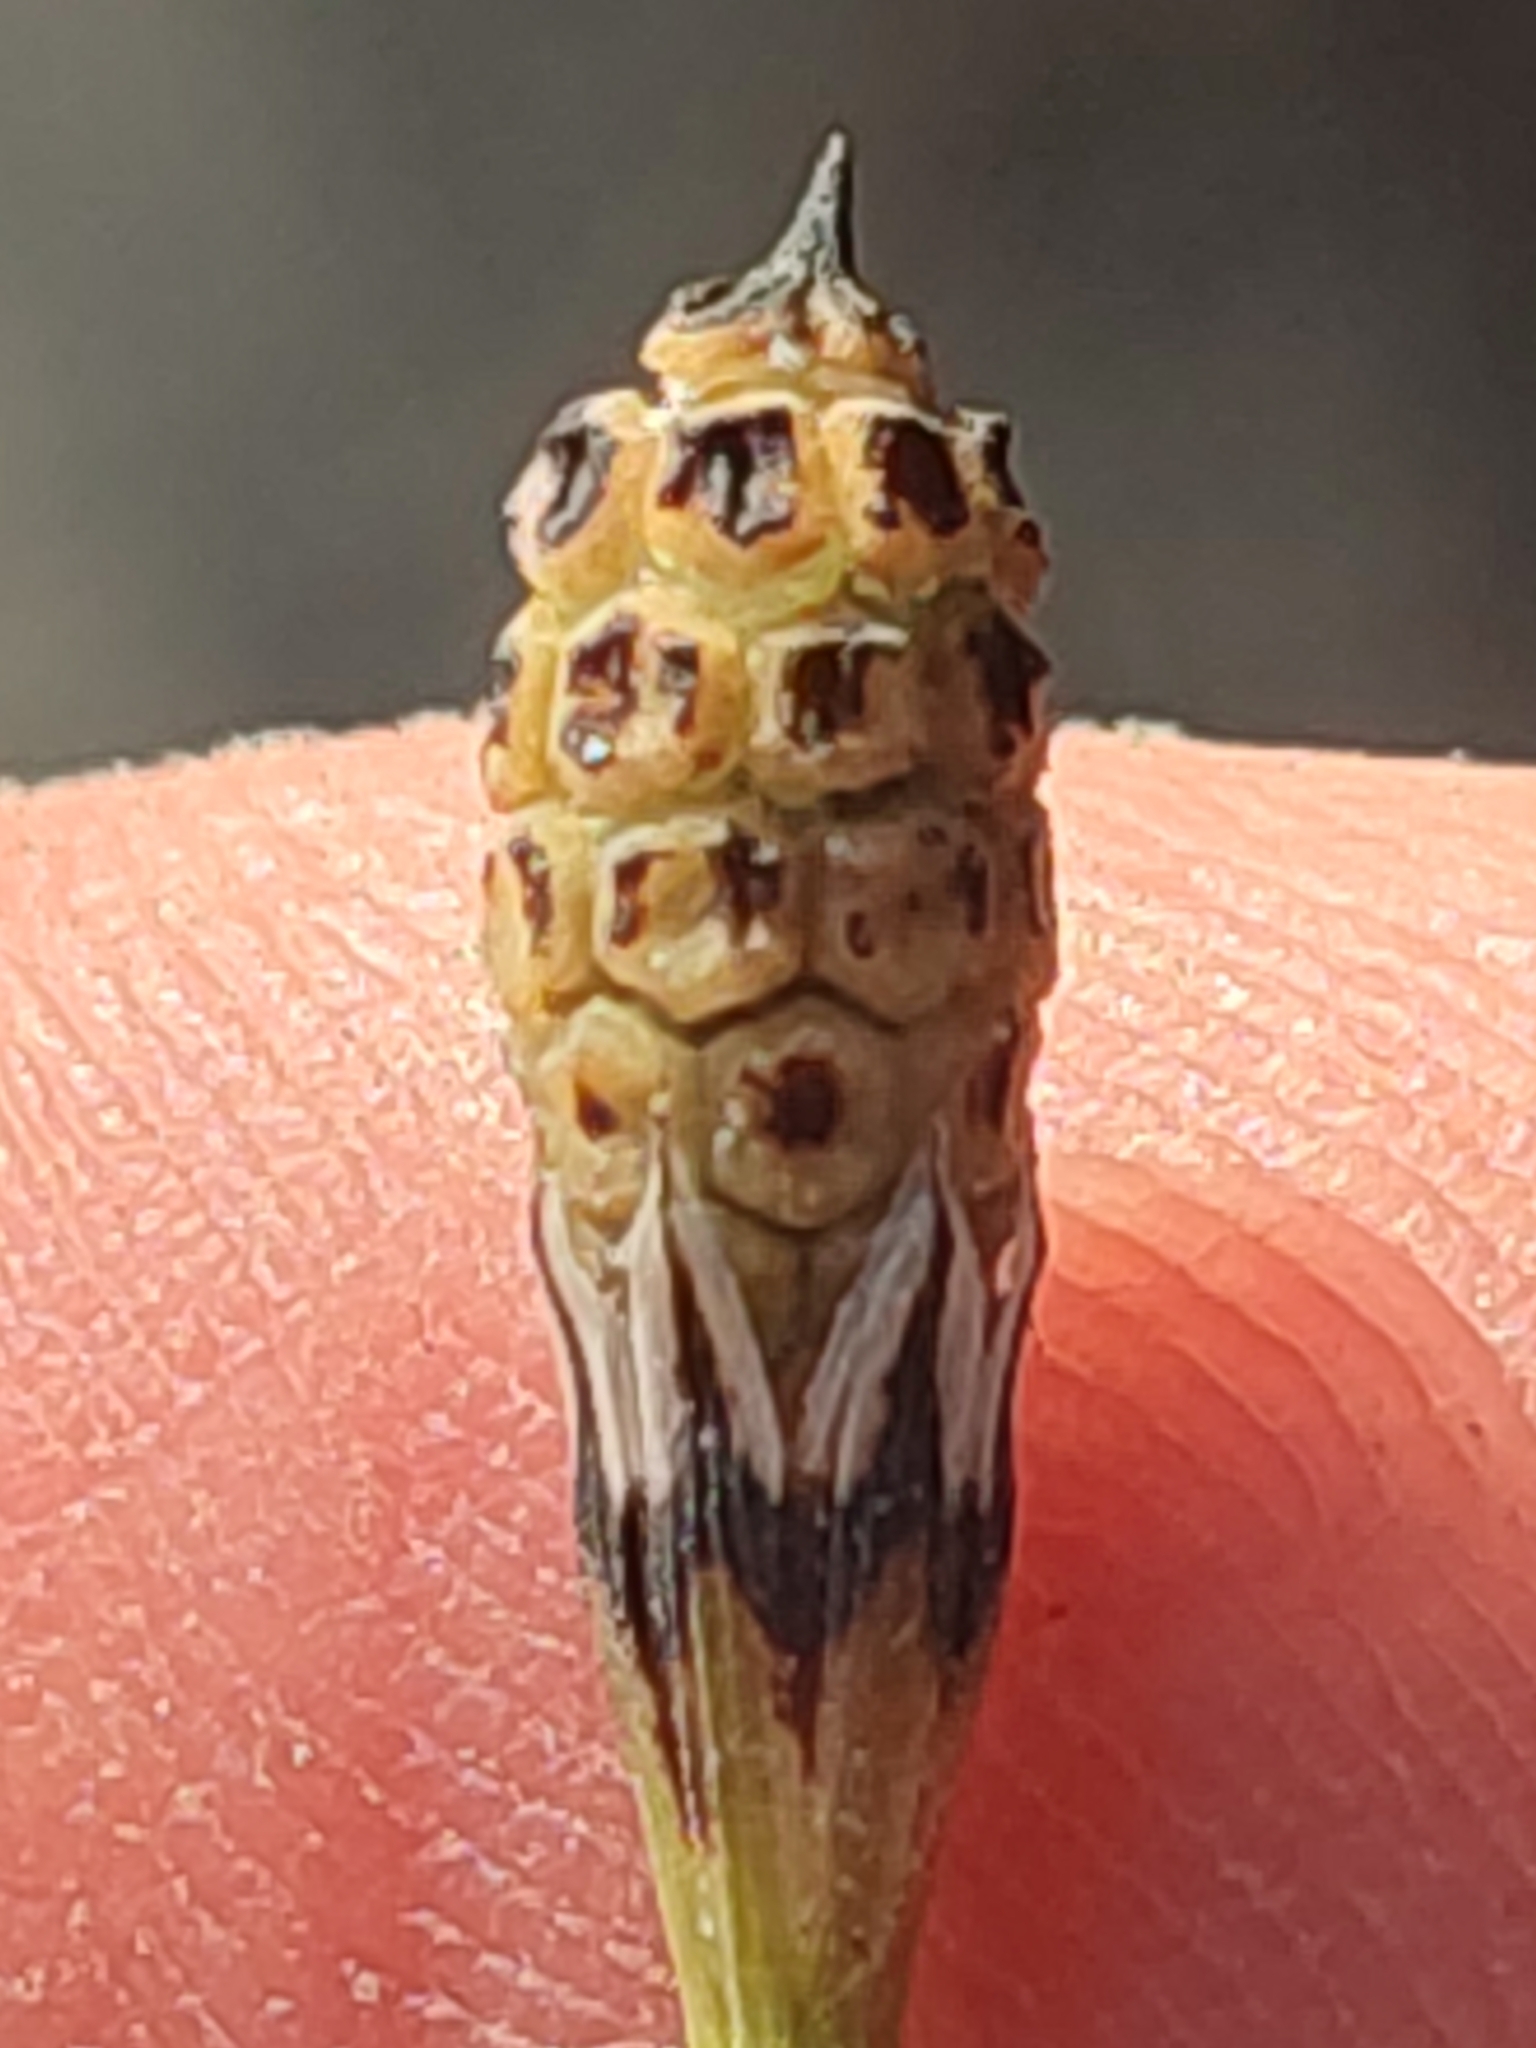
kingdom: Plantae
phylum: Tracheophyta
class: Polypodiopsida
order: Equisetales
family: Equisetaceae
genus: Equisetum
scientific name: Equisetum variegatum
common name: Variegated horsetail
